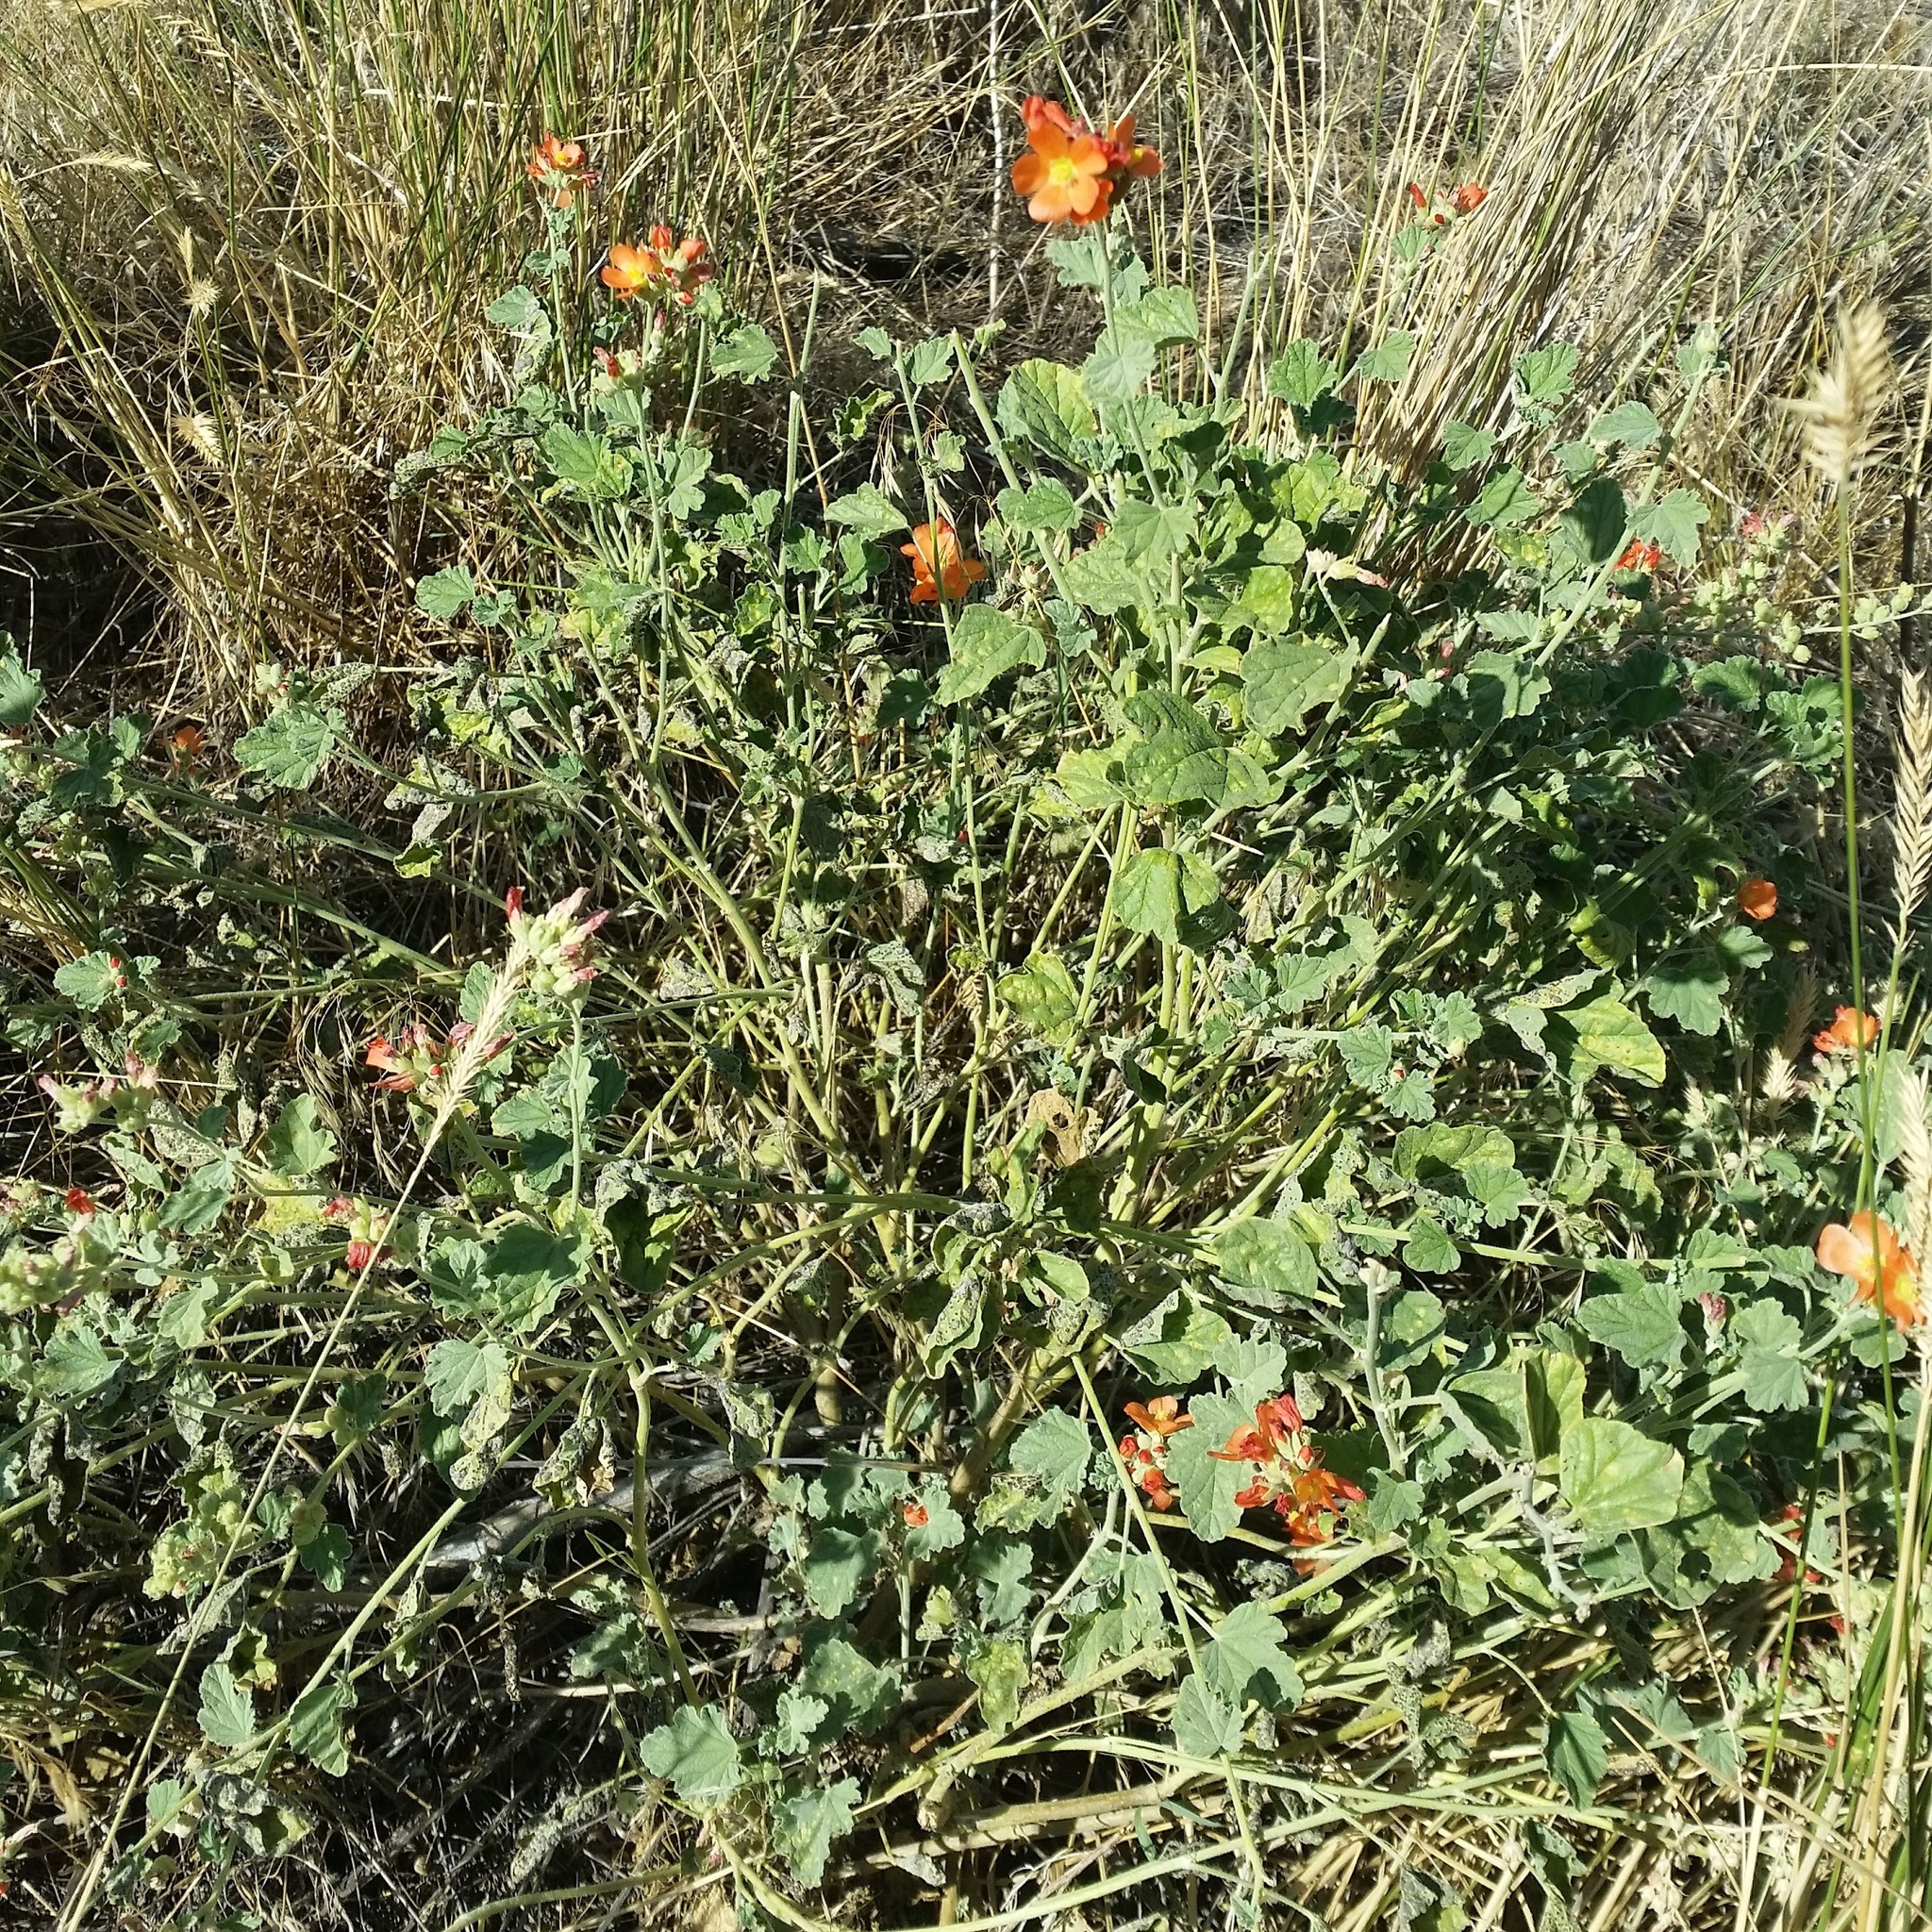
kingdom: Plantae
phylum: Tracheophyta
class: Magnoliopsida
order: Malvales
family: Malvaceae
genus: Sphaeralcea
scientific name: Sphaeralcea munroana
